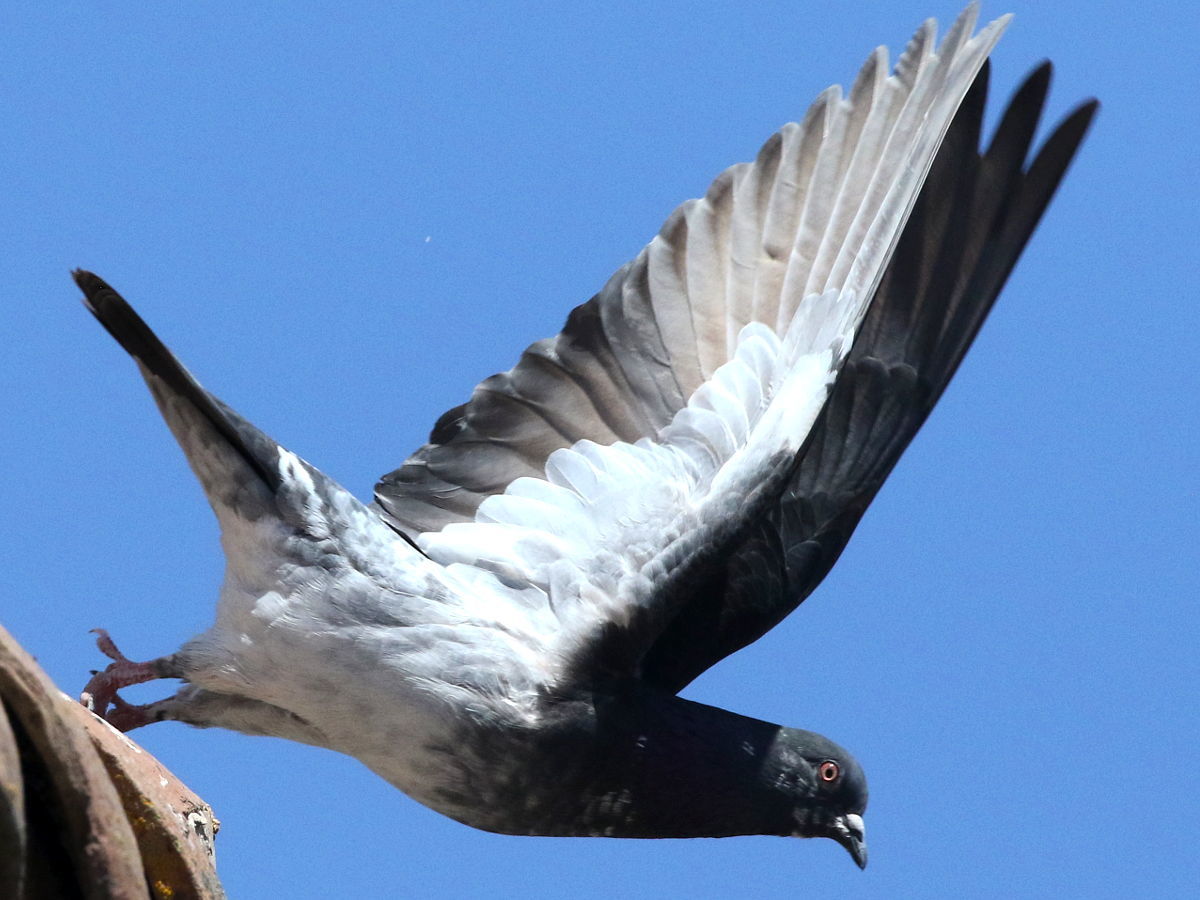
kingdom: Animalia
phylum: Chordata
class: Aves
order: Columbiformes
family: Columbidae
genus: Columba
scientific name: Columba livia
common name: Rock pigeon
